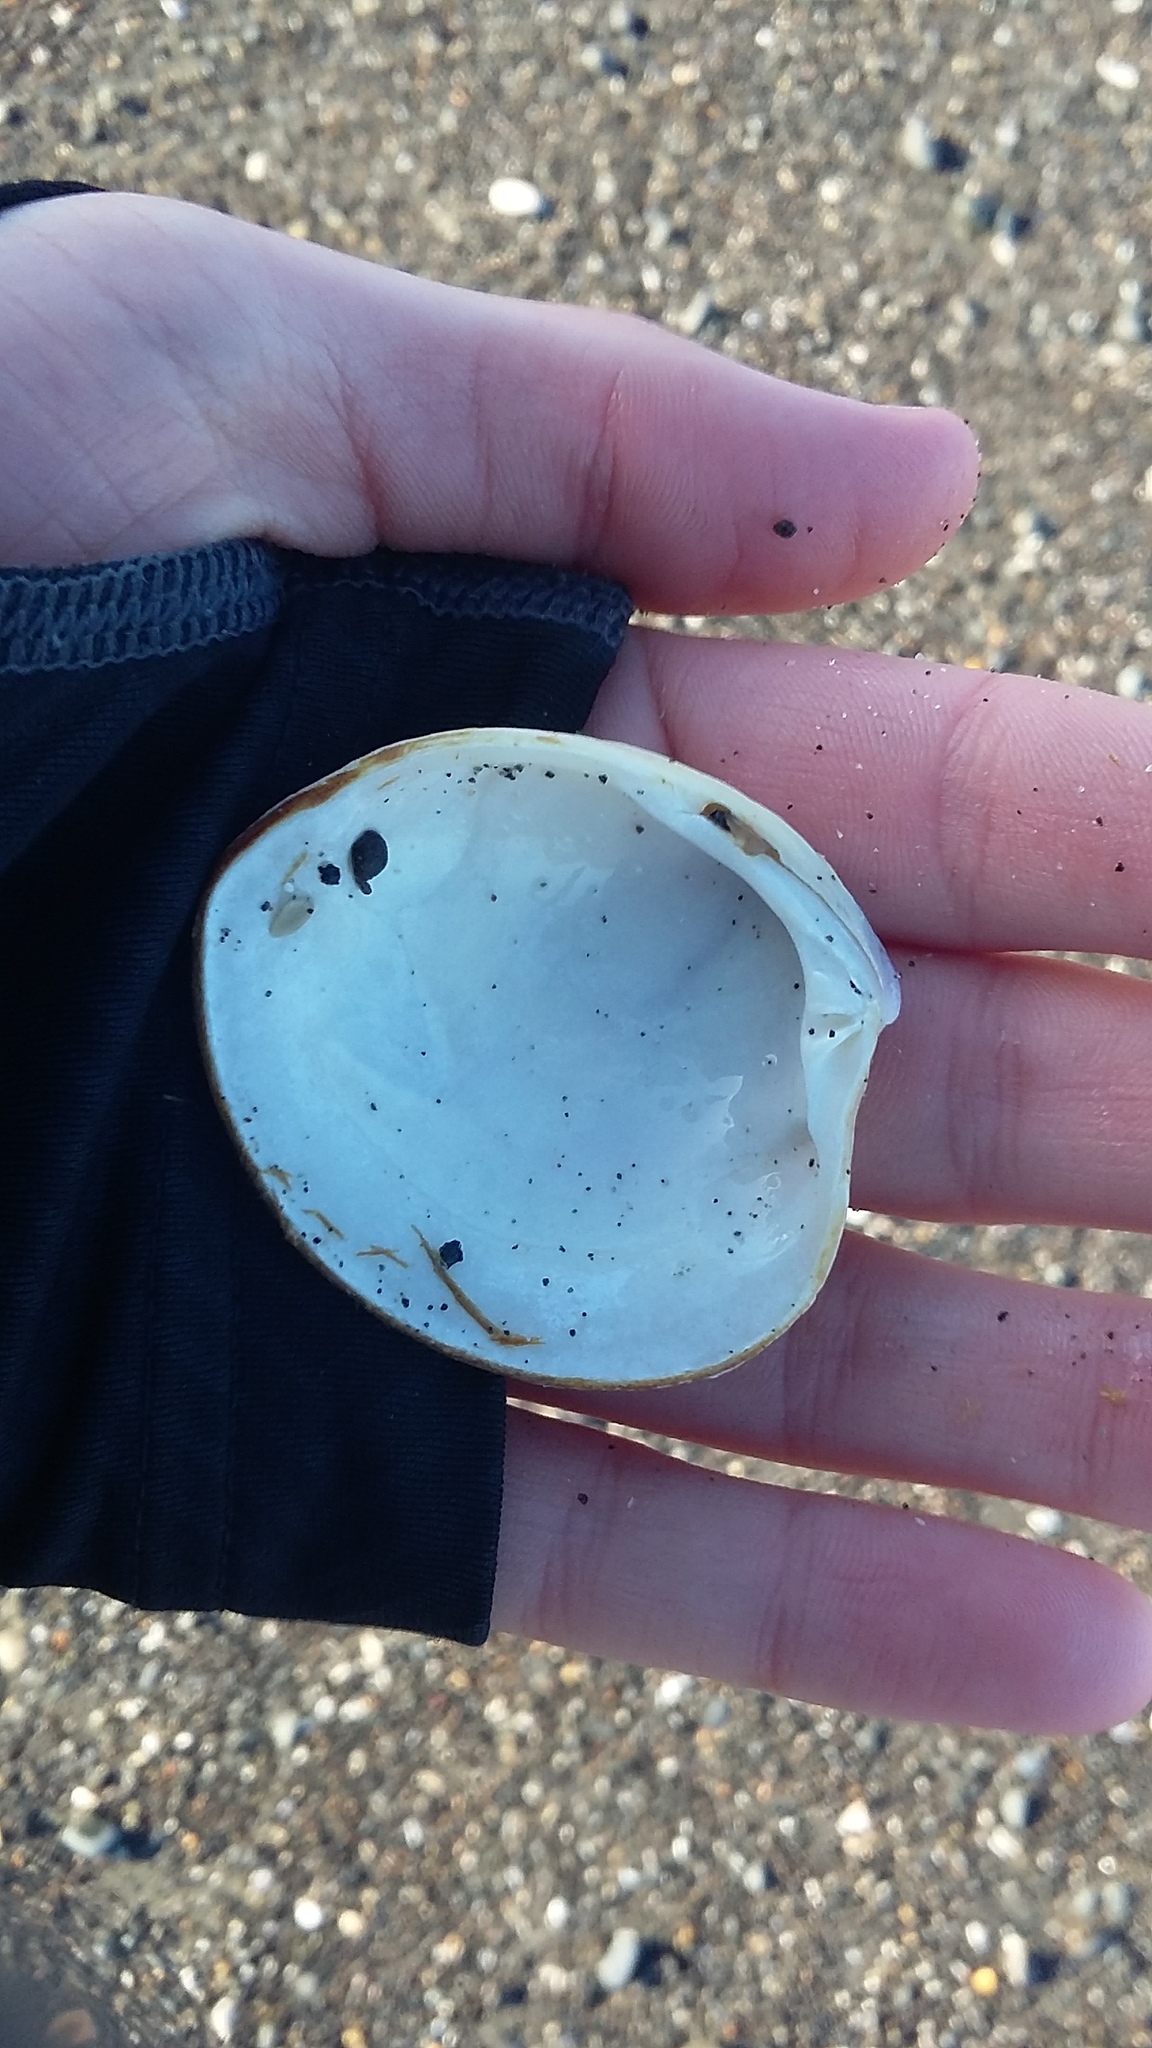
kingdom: Animalia
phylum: Mollusca
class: Bivalvia
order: Venerida
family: Veneridae
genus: Bassina
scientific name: Bassina yatei
